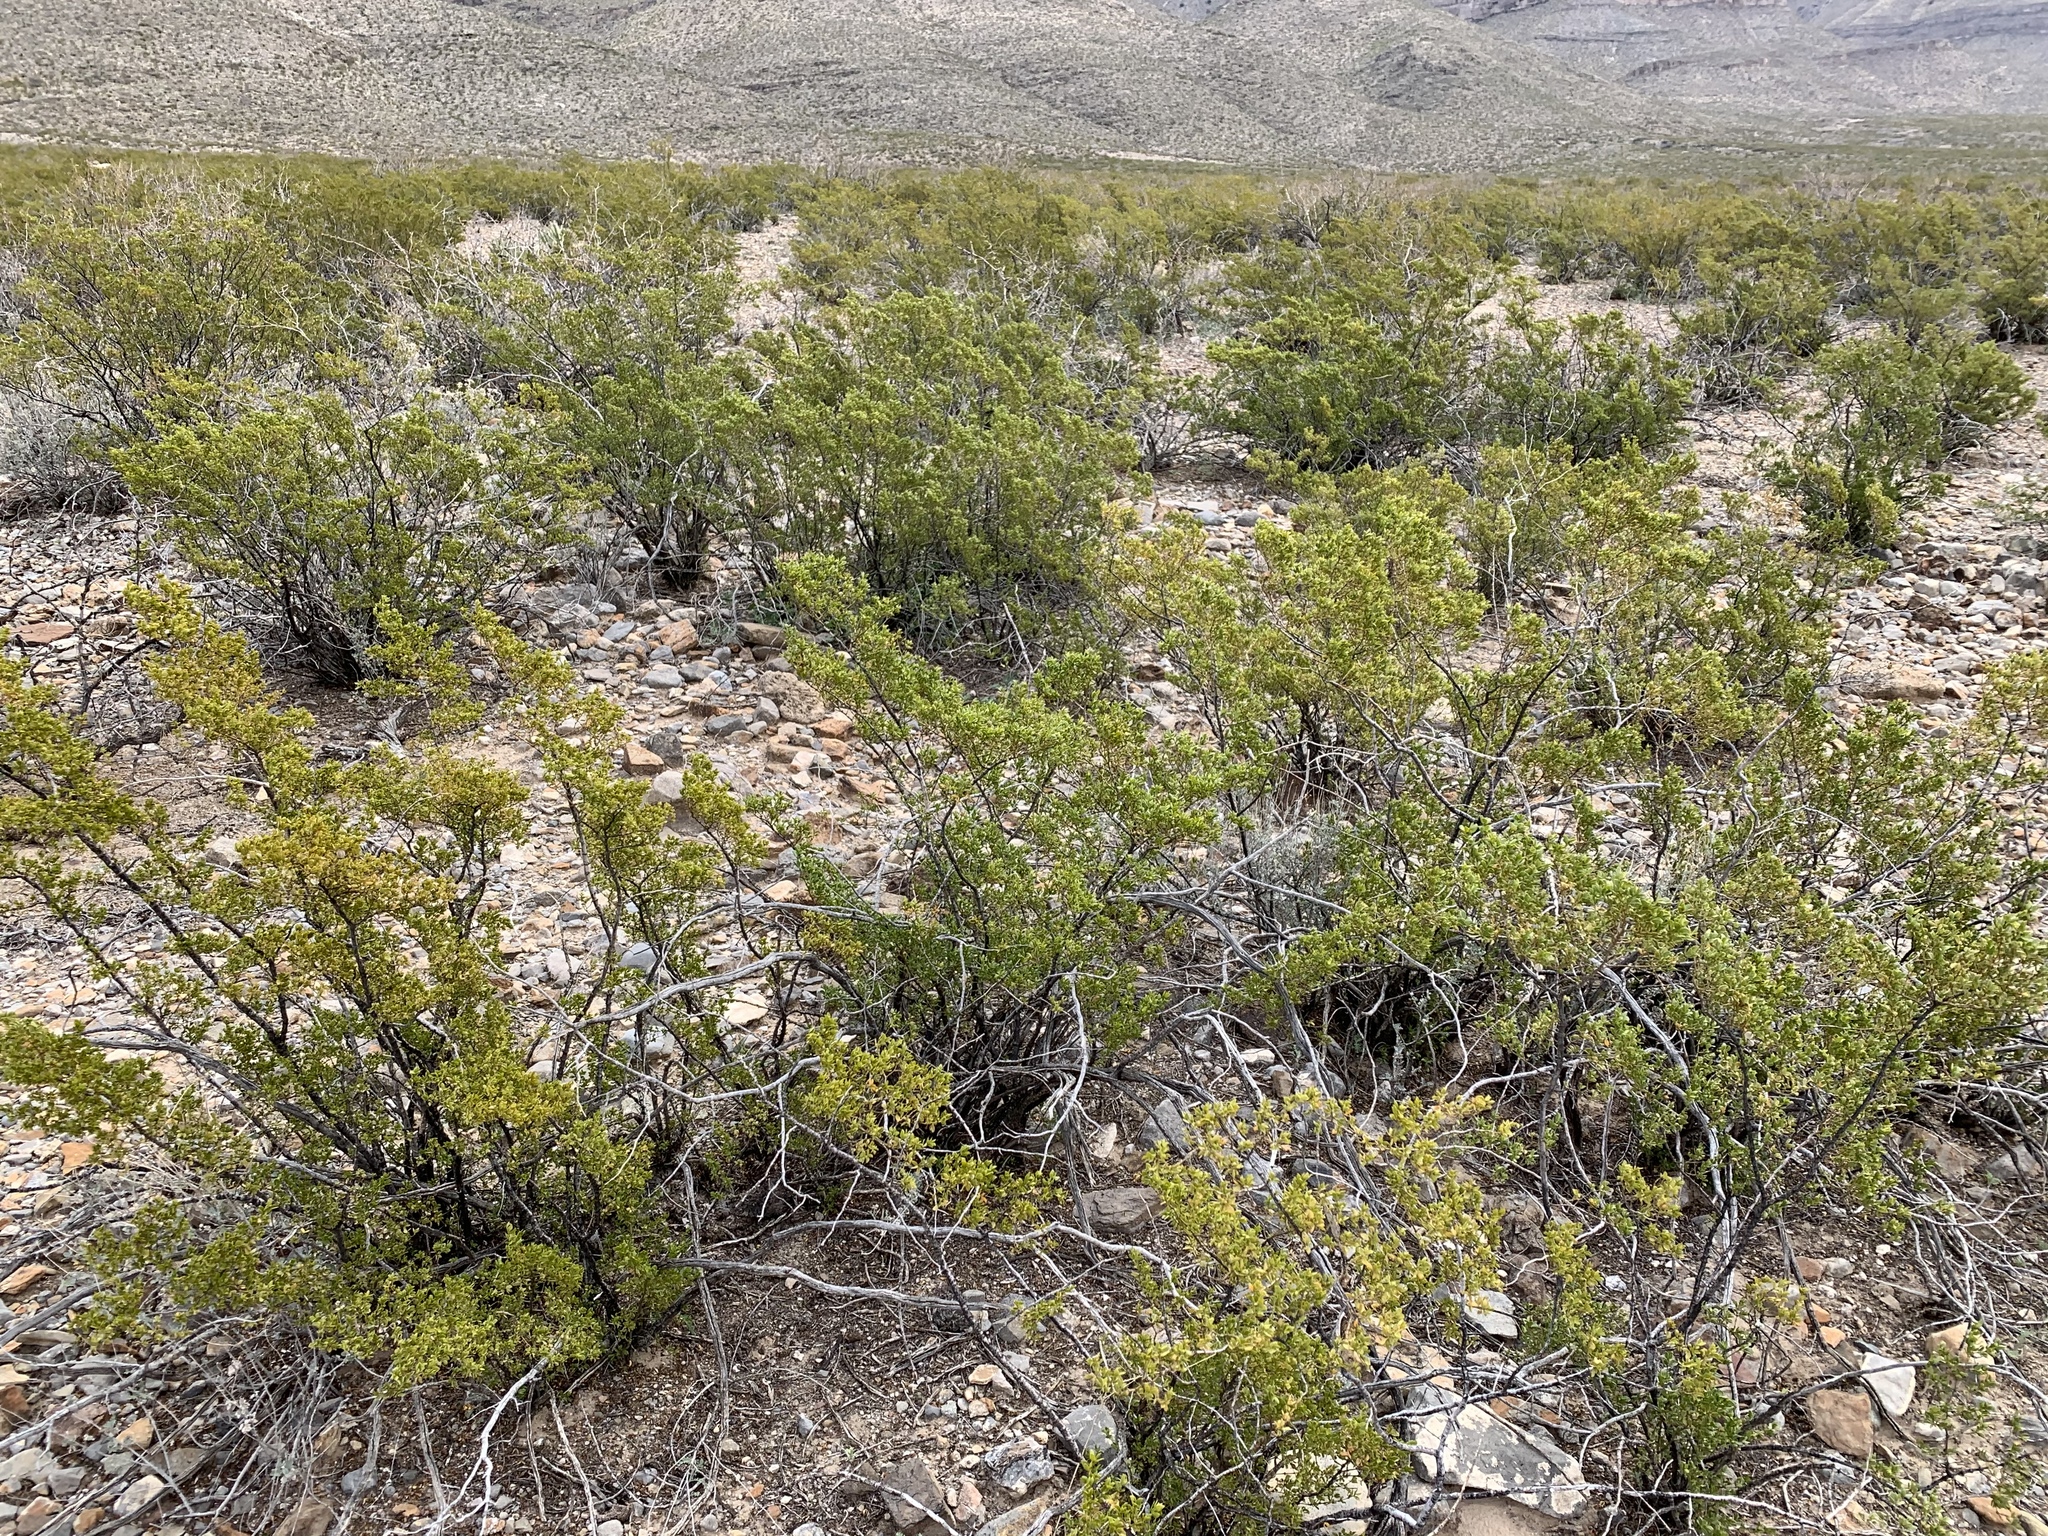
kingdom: Plantae
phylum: Tracheophyta
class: Magnoliopsida
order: Zygophyllales
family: Zygophyllaceae
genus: Larrea
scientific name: Larrea tridentata
